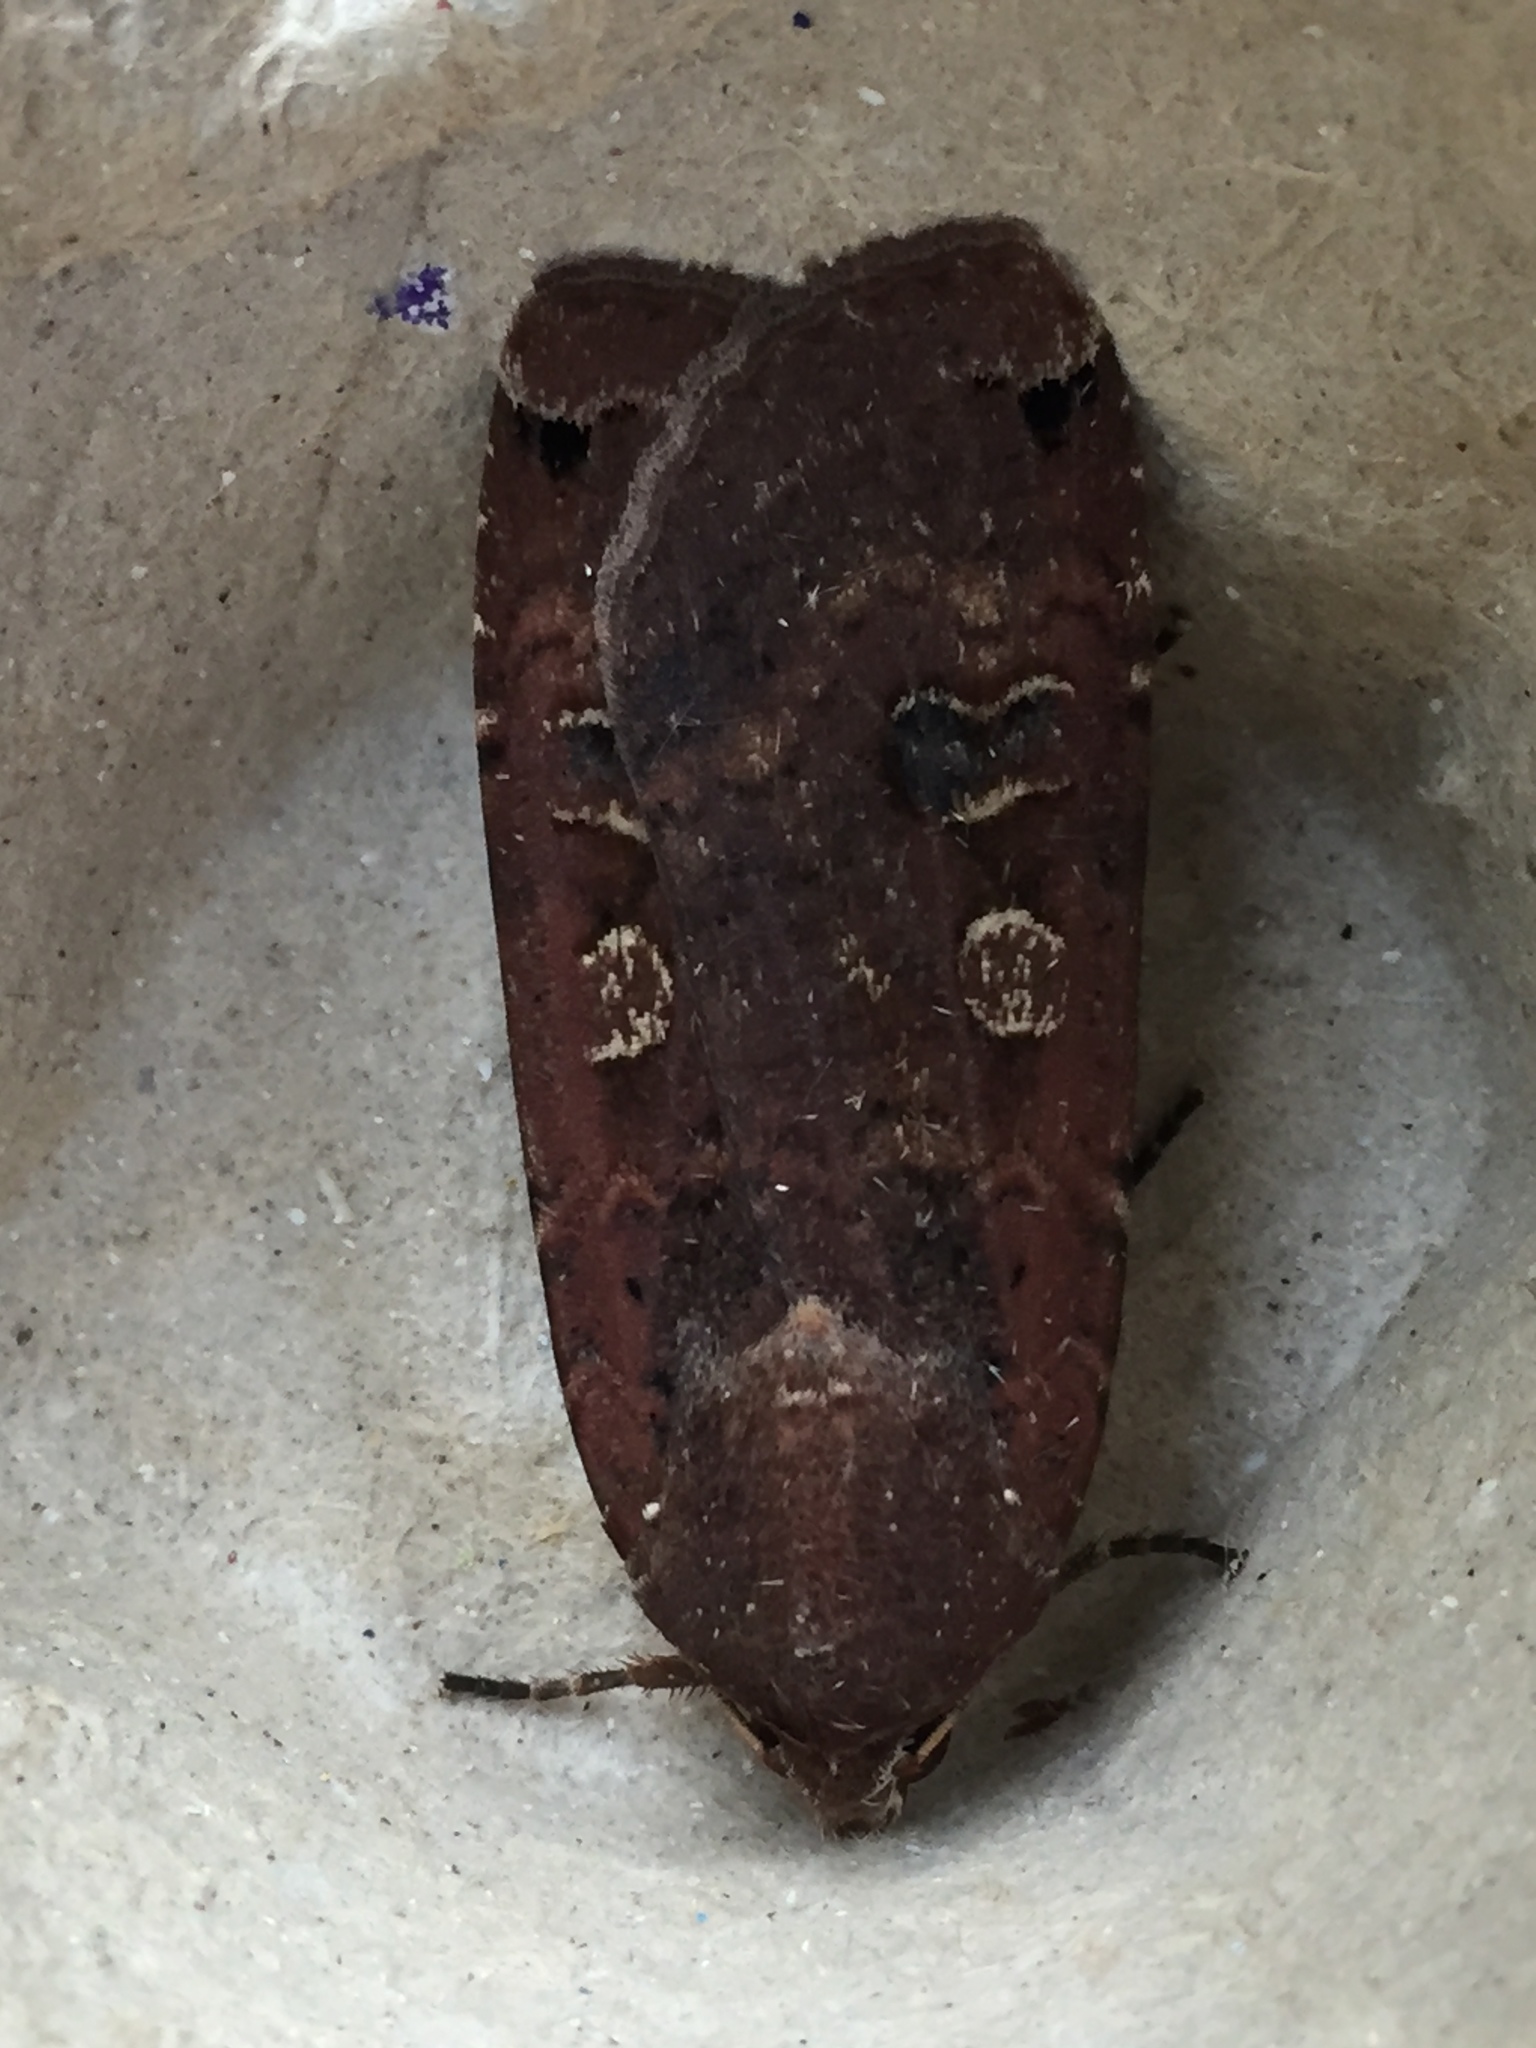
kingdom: Animalia
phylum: Arthropoda
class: Insecta
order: Lepidoptera
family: Noctuidae
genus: Noctua
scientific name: Noctua pronuba
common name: Large yellow underwing
